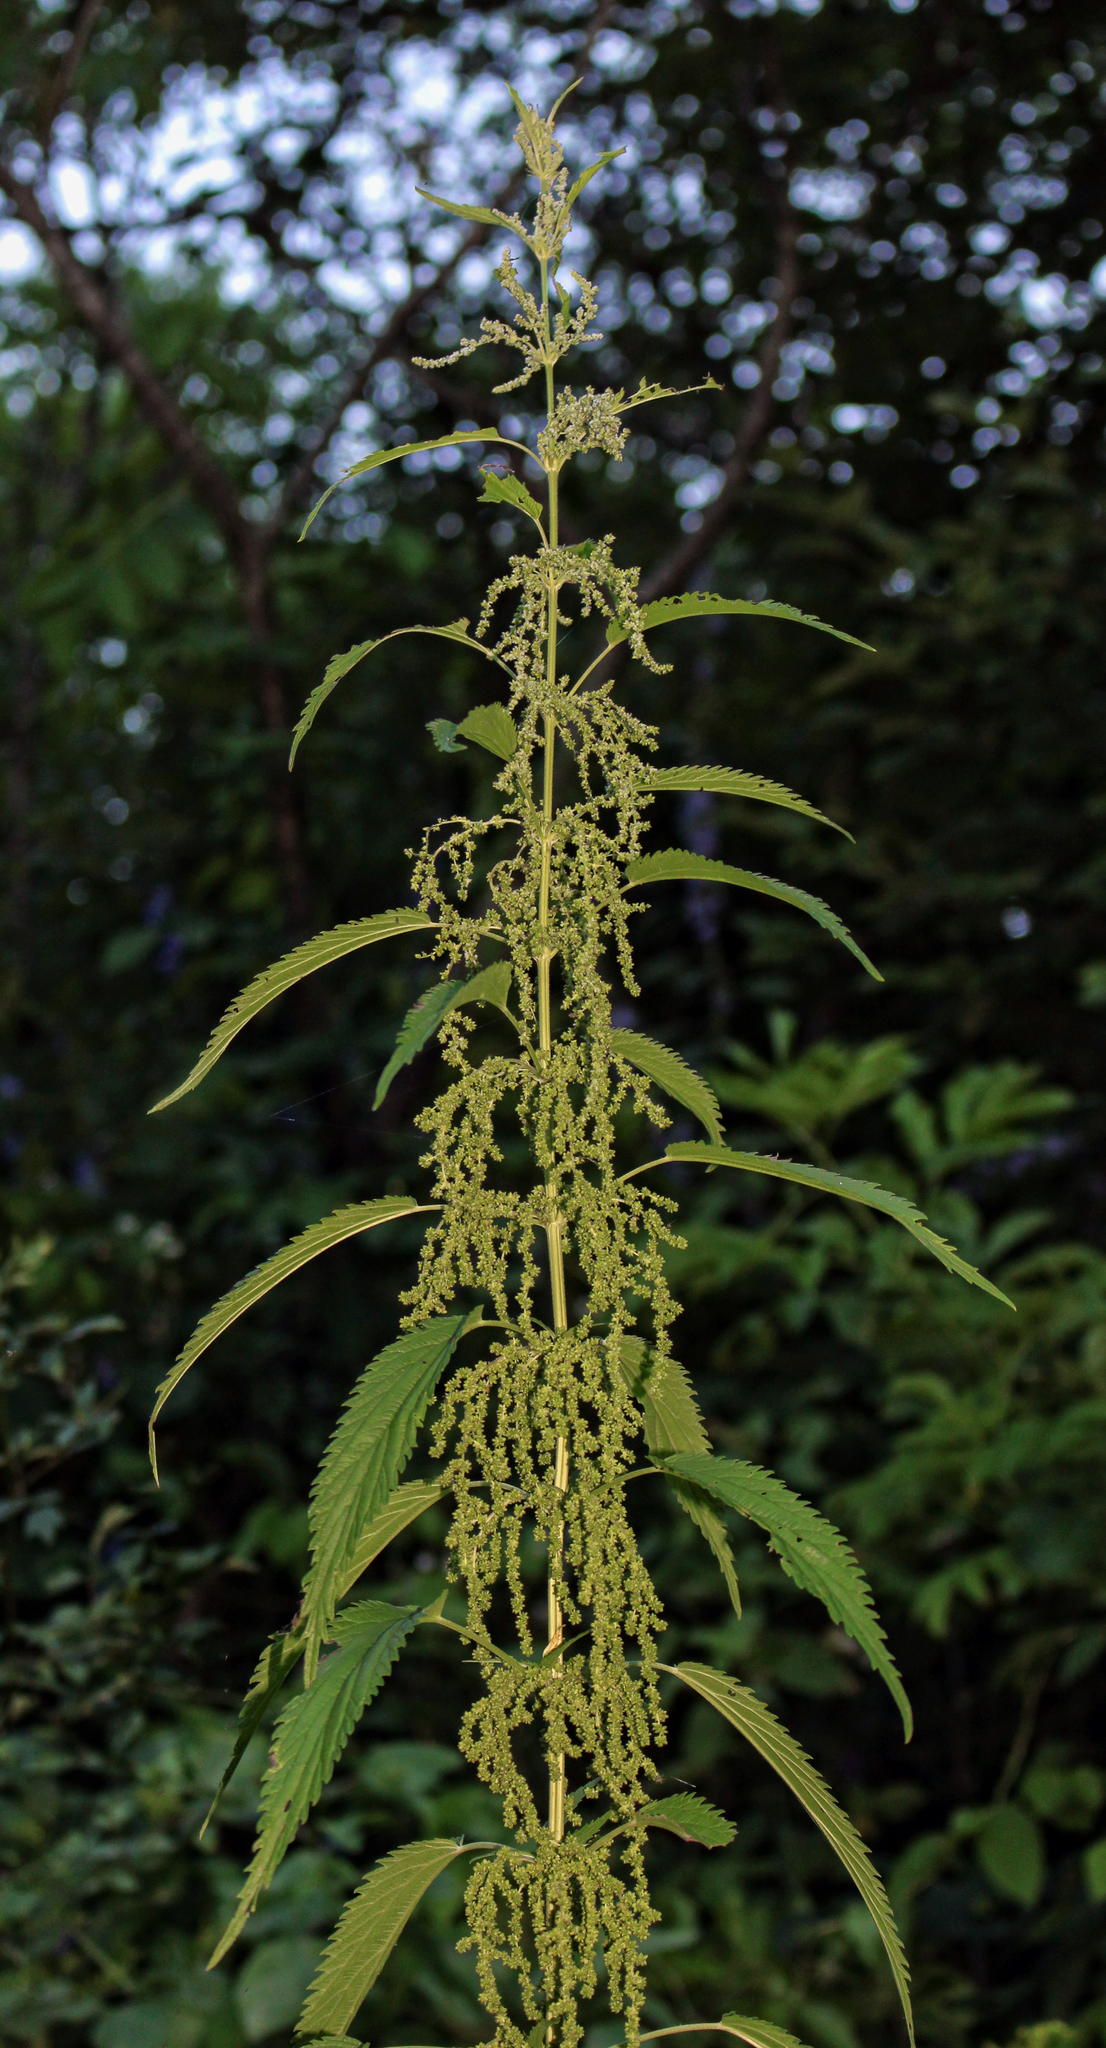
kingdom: Plantae
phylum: Tracheophyta
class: Magnoliopsida
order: Rosales
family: Urticaceae
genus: Urtica
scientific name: Urtica dioica
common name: Common nettle
